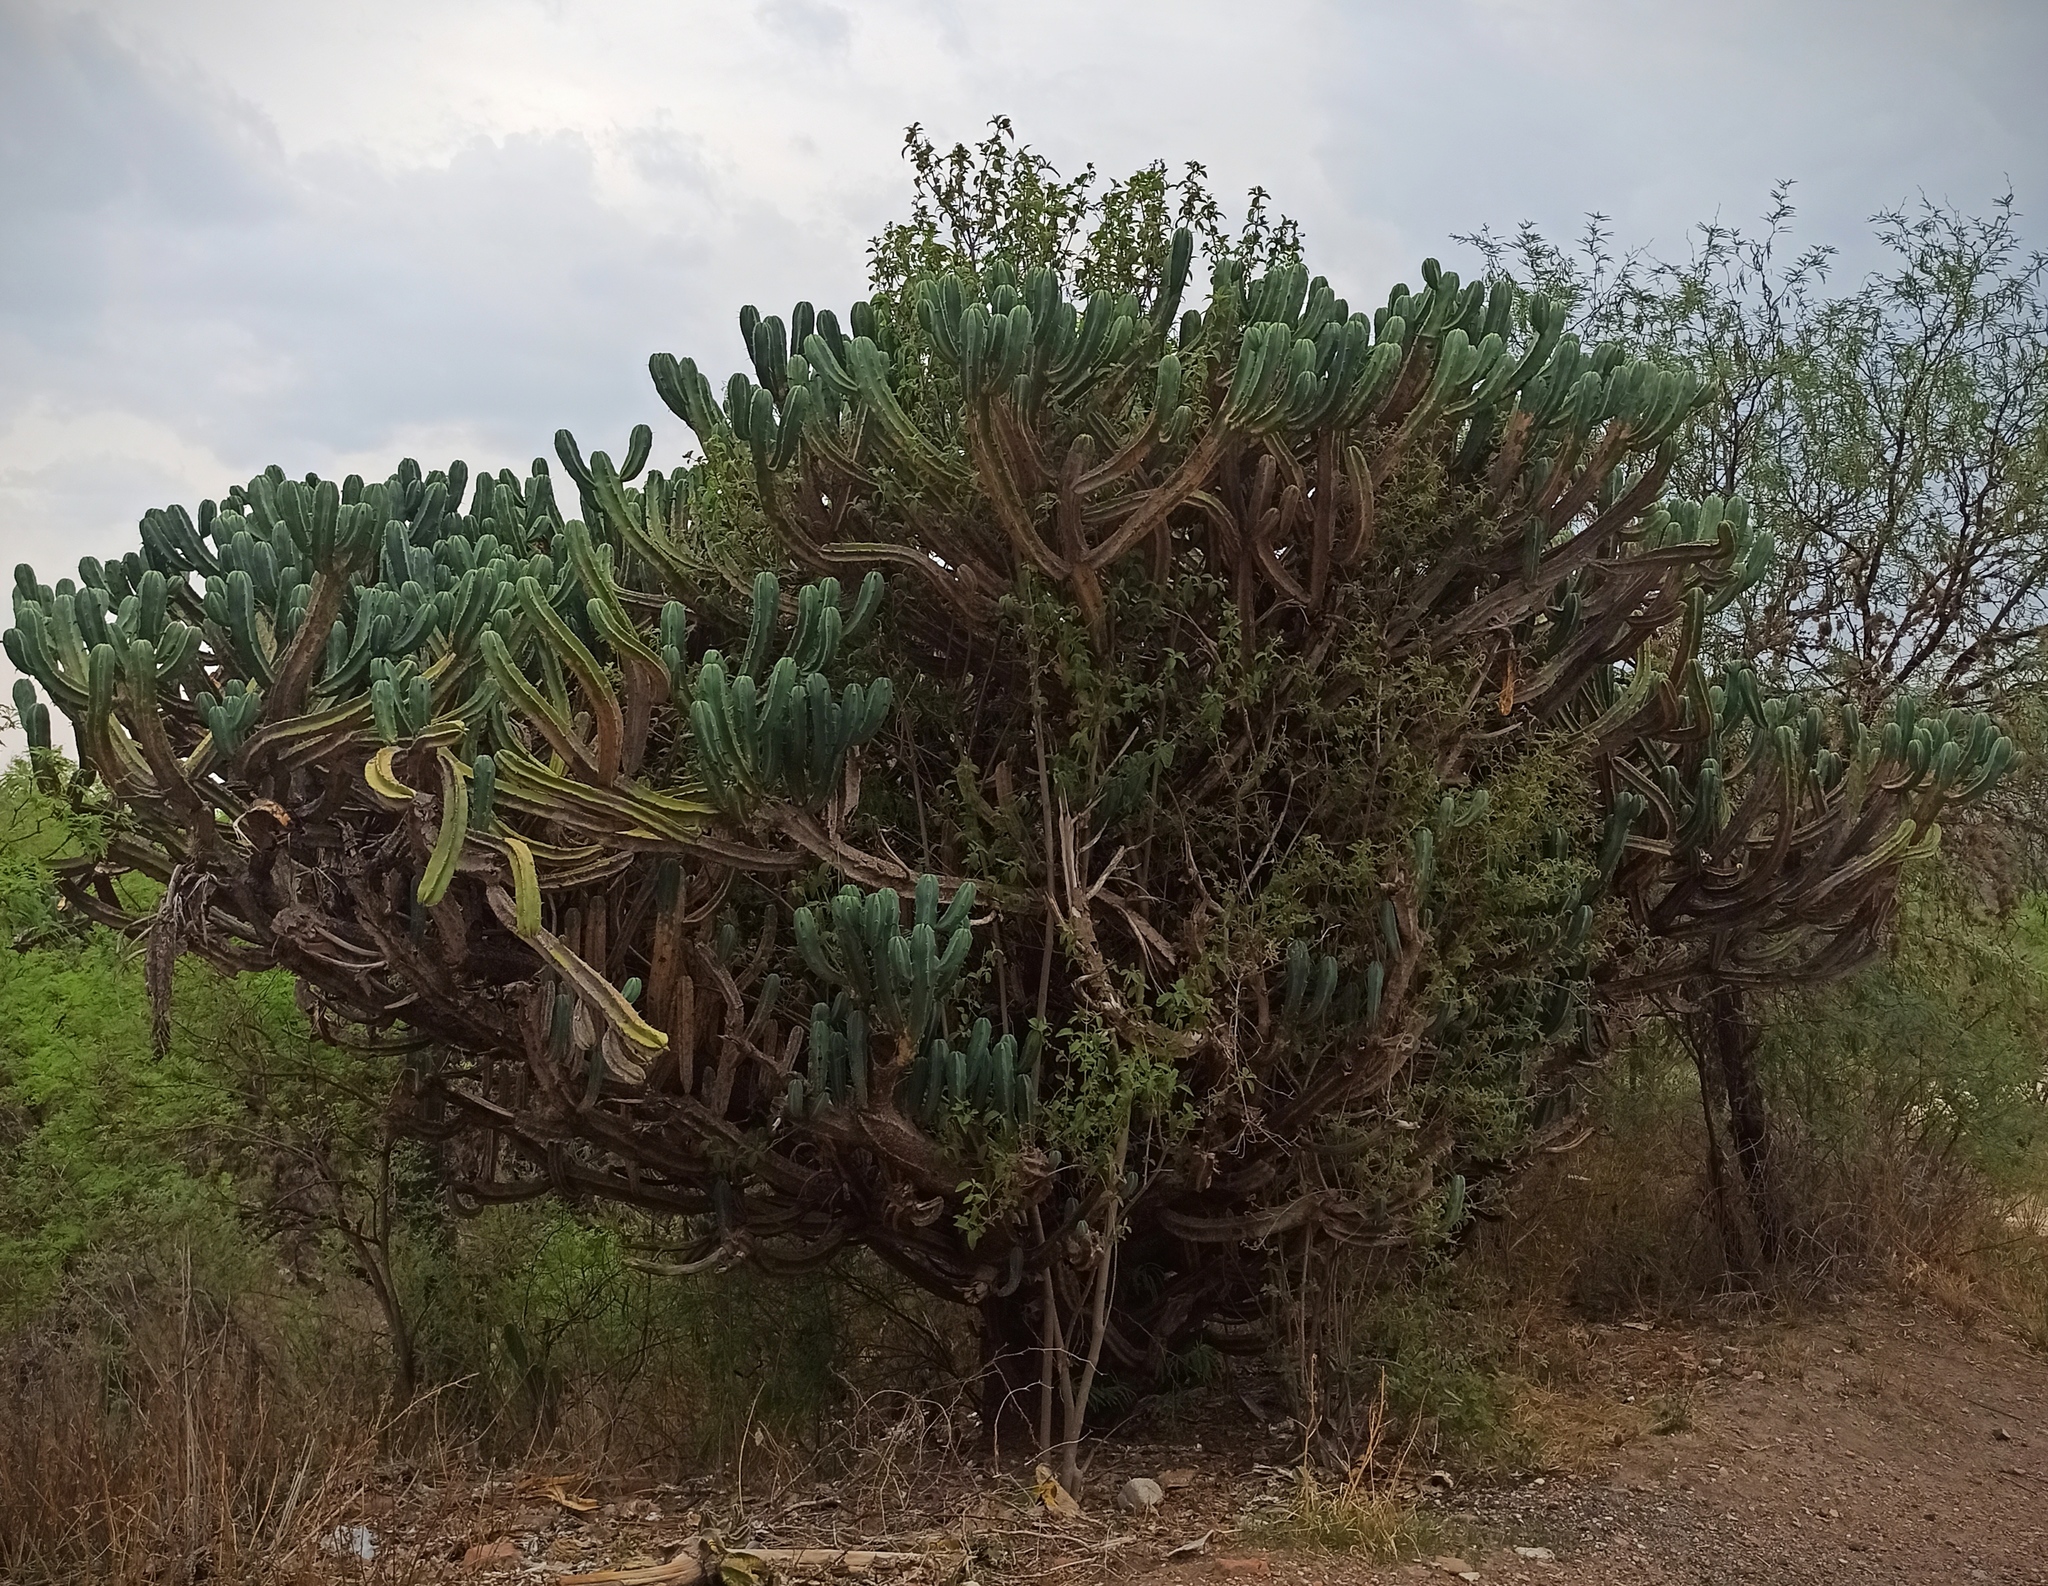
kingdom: Plantae
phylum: Tracheophyta
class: Magnoliopsida
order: Caryophyllales
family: Cactaceae
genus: Myrtillocactus
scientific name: Myrtillocactus geometrizans
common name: Bilberry cactus
